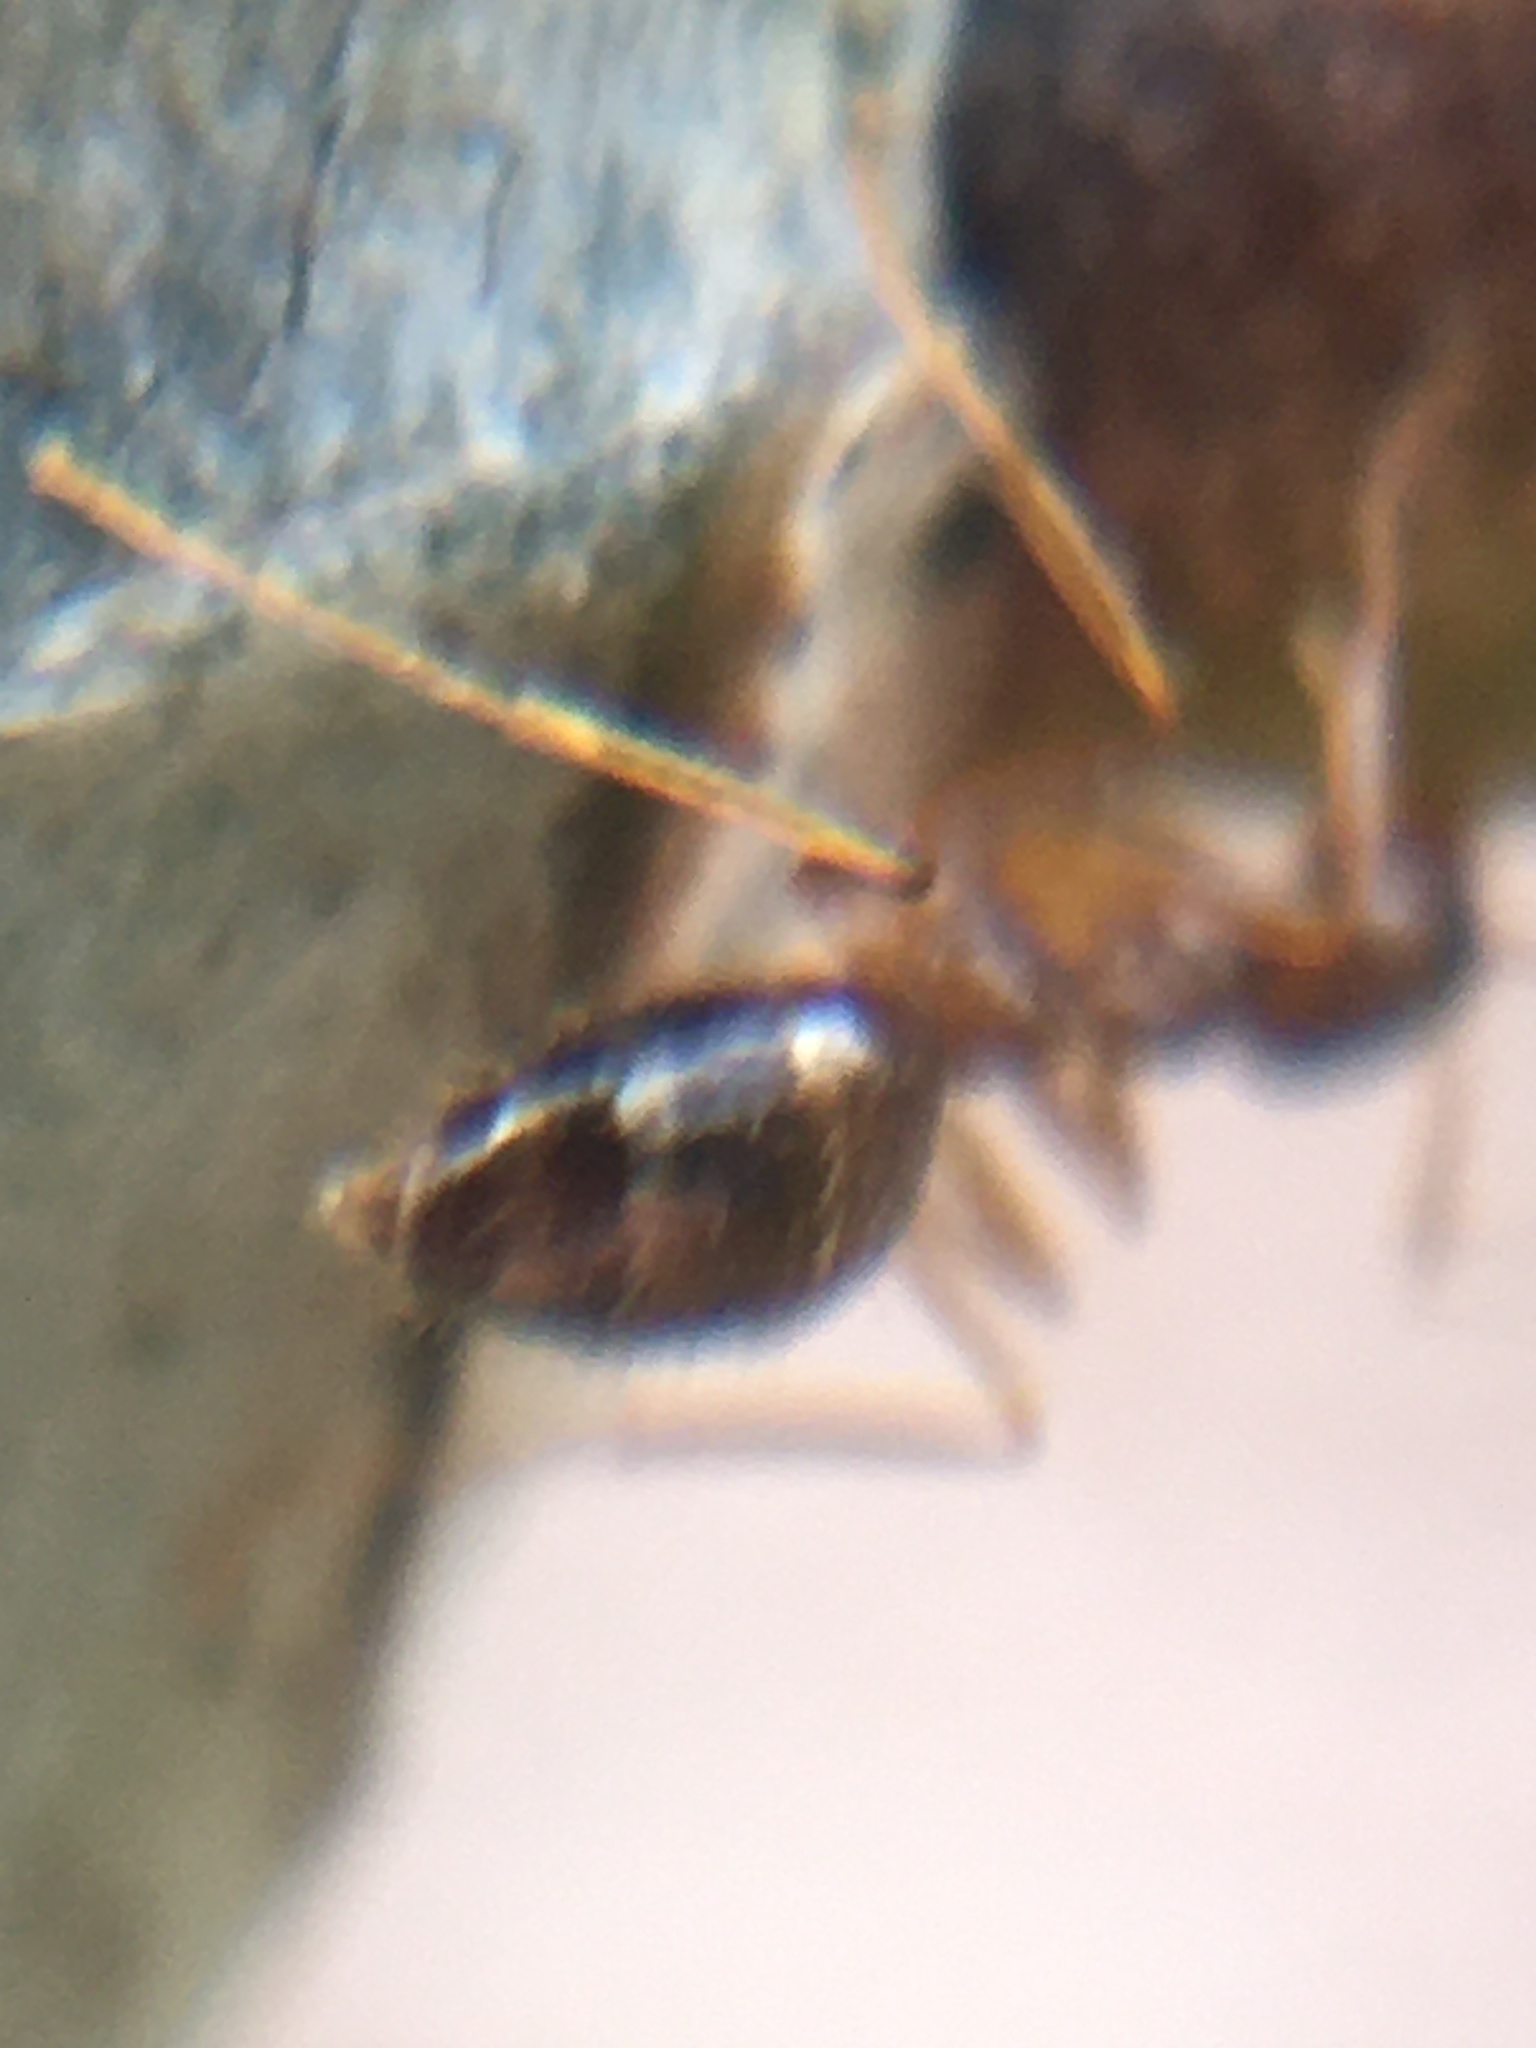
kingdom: Animalia
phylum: Arthropoda
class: Insecta
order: Hymenoptera
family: Formicidae
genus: Prenolepis
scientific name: Prenolepis imparis
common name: Small honey ant
